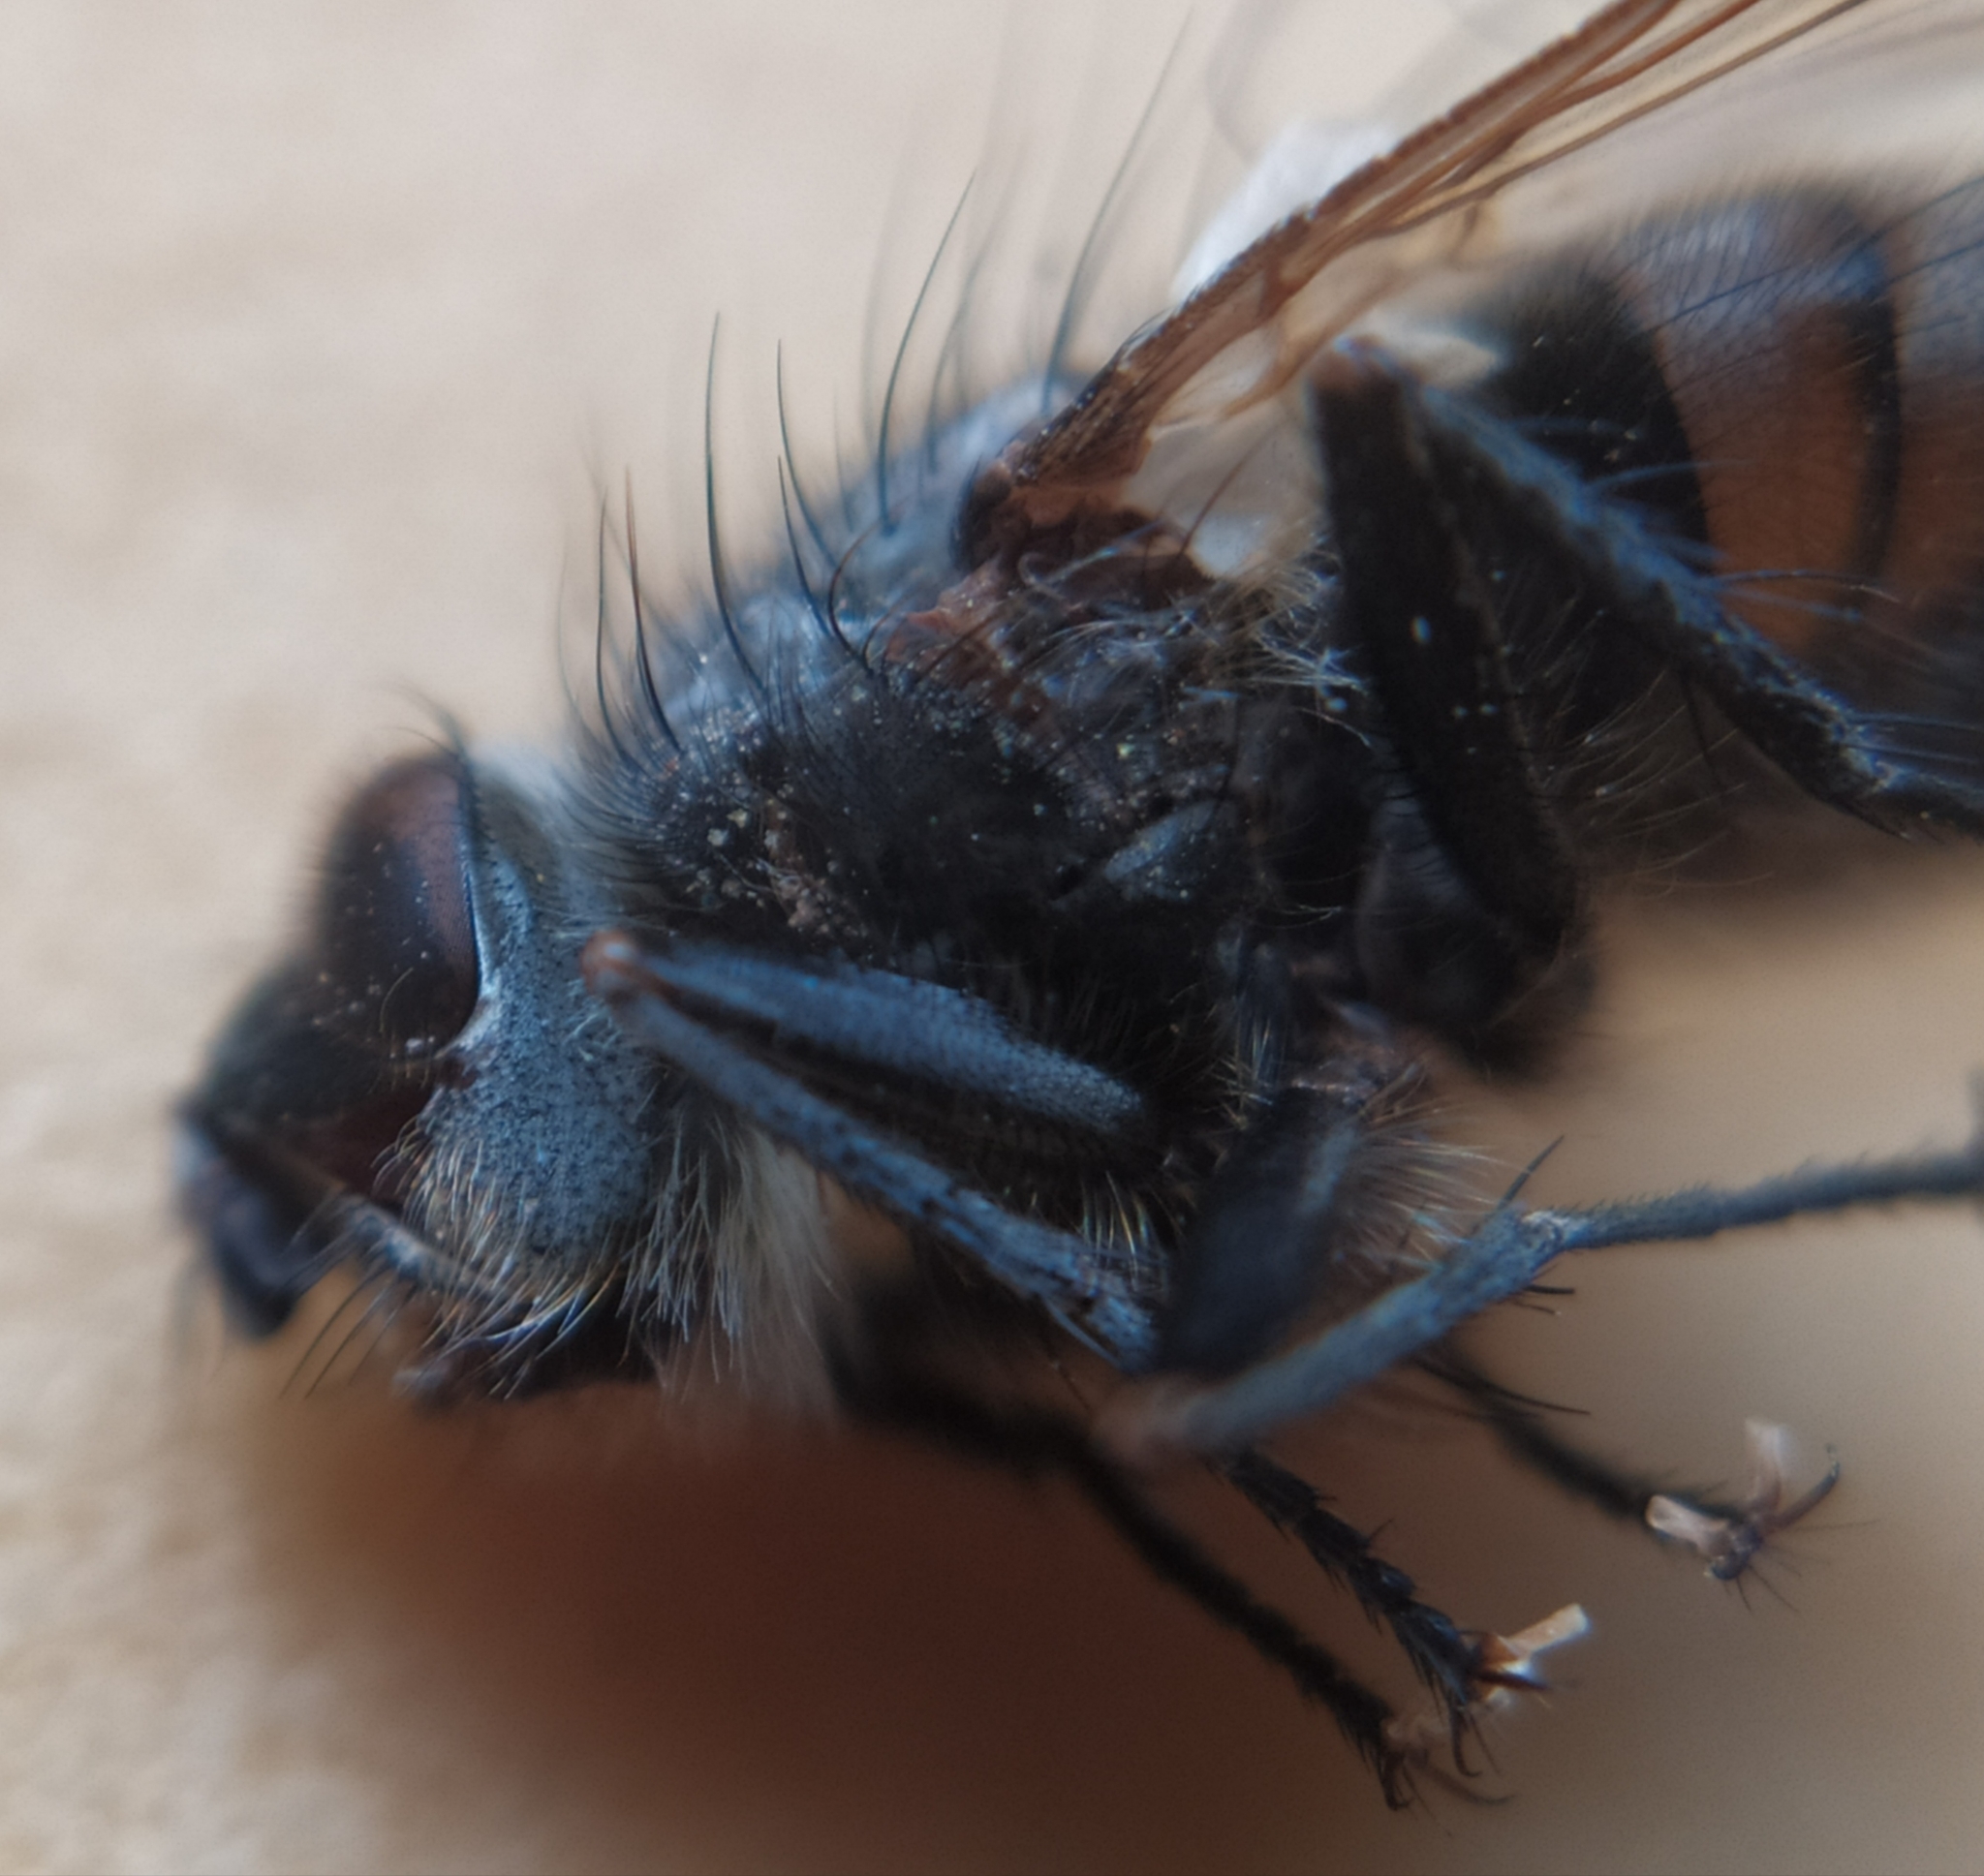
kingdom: Animalia
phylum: Arthropoda
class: Insecta
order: Diptera
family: Tachinidae
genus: Panzeria
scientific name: Panzeria puparum
